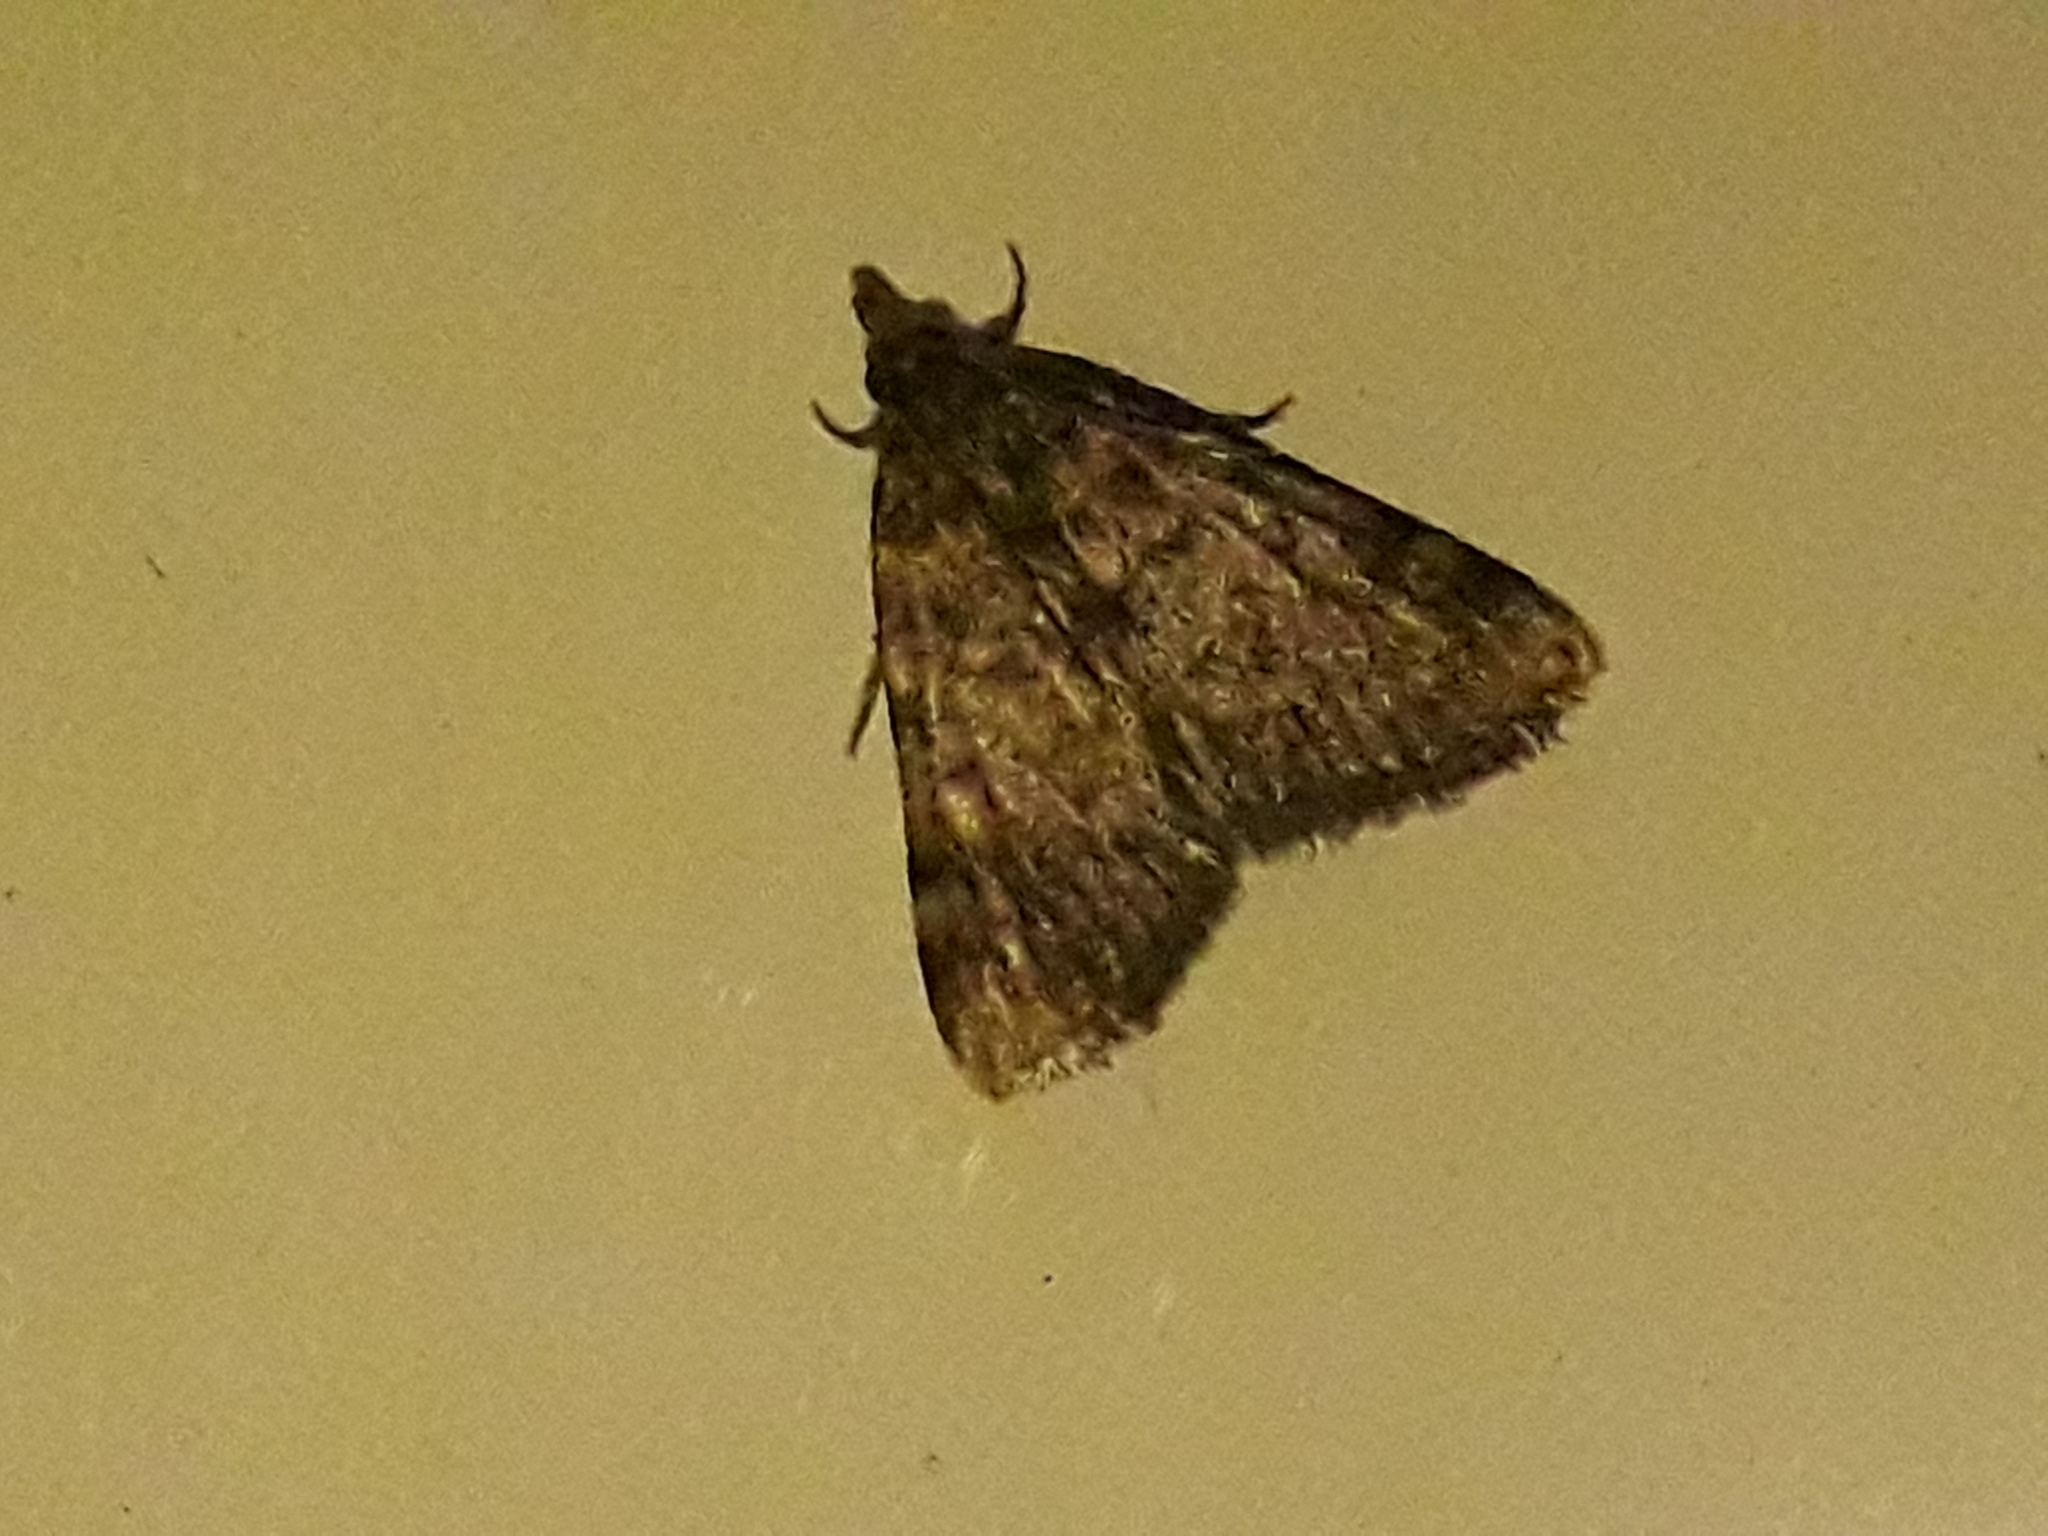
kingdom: Animalia
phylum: Arthropoda
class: Insecta
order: Lepidoptera
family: Pyralidae
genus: Aglossa
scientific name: Aglossa pinguinalis
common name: Large tabby
